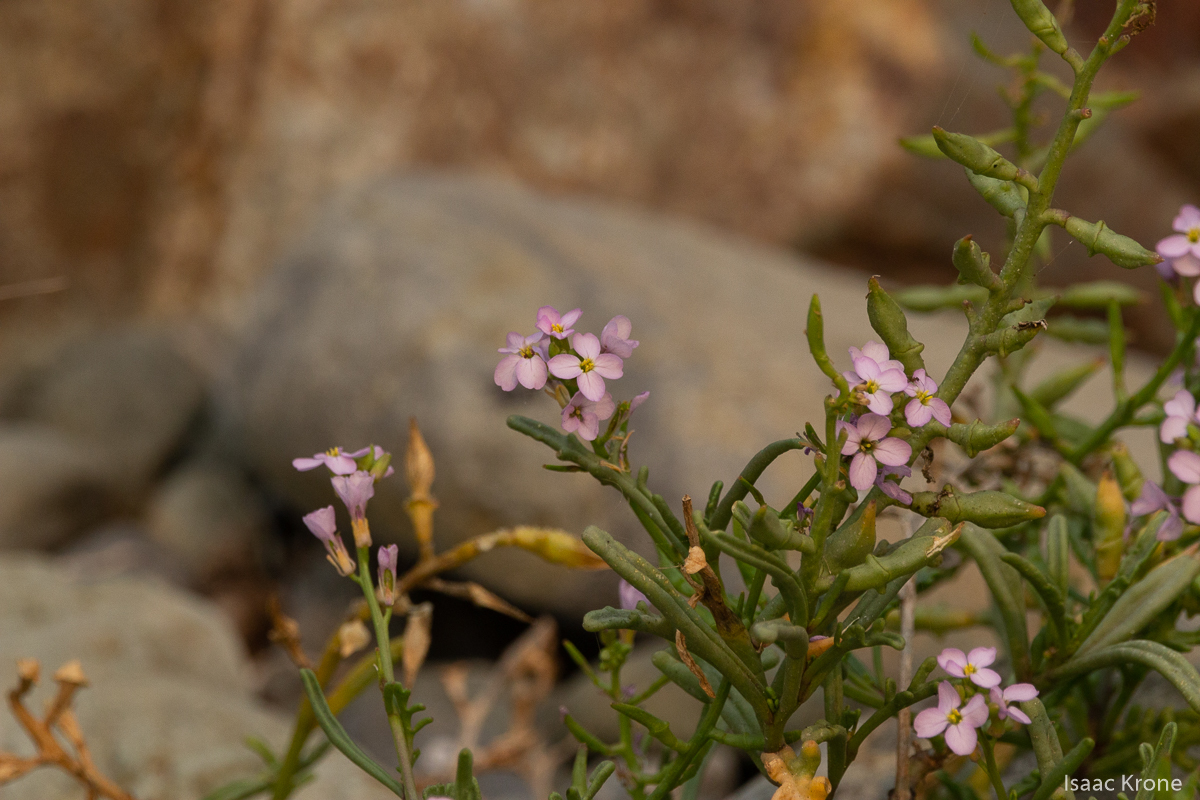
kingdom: Plantae
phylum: Tracheophyta
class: Magnoliopsida
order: Brassicales
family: Brassicaceae
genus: Cakile
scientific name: Cakile maritima
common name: Sea rocket
